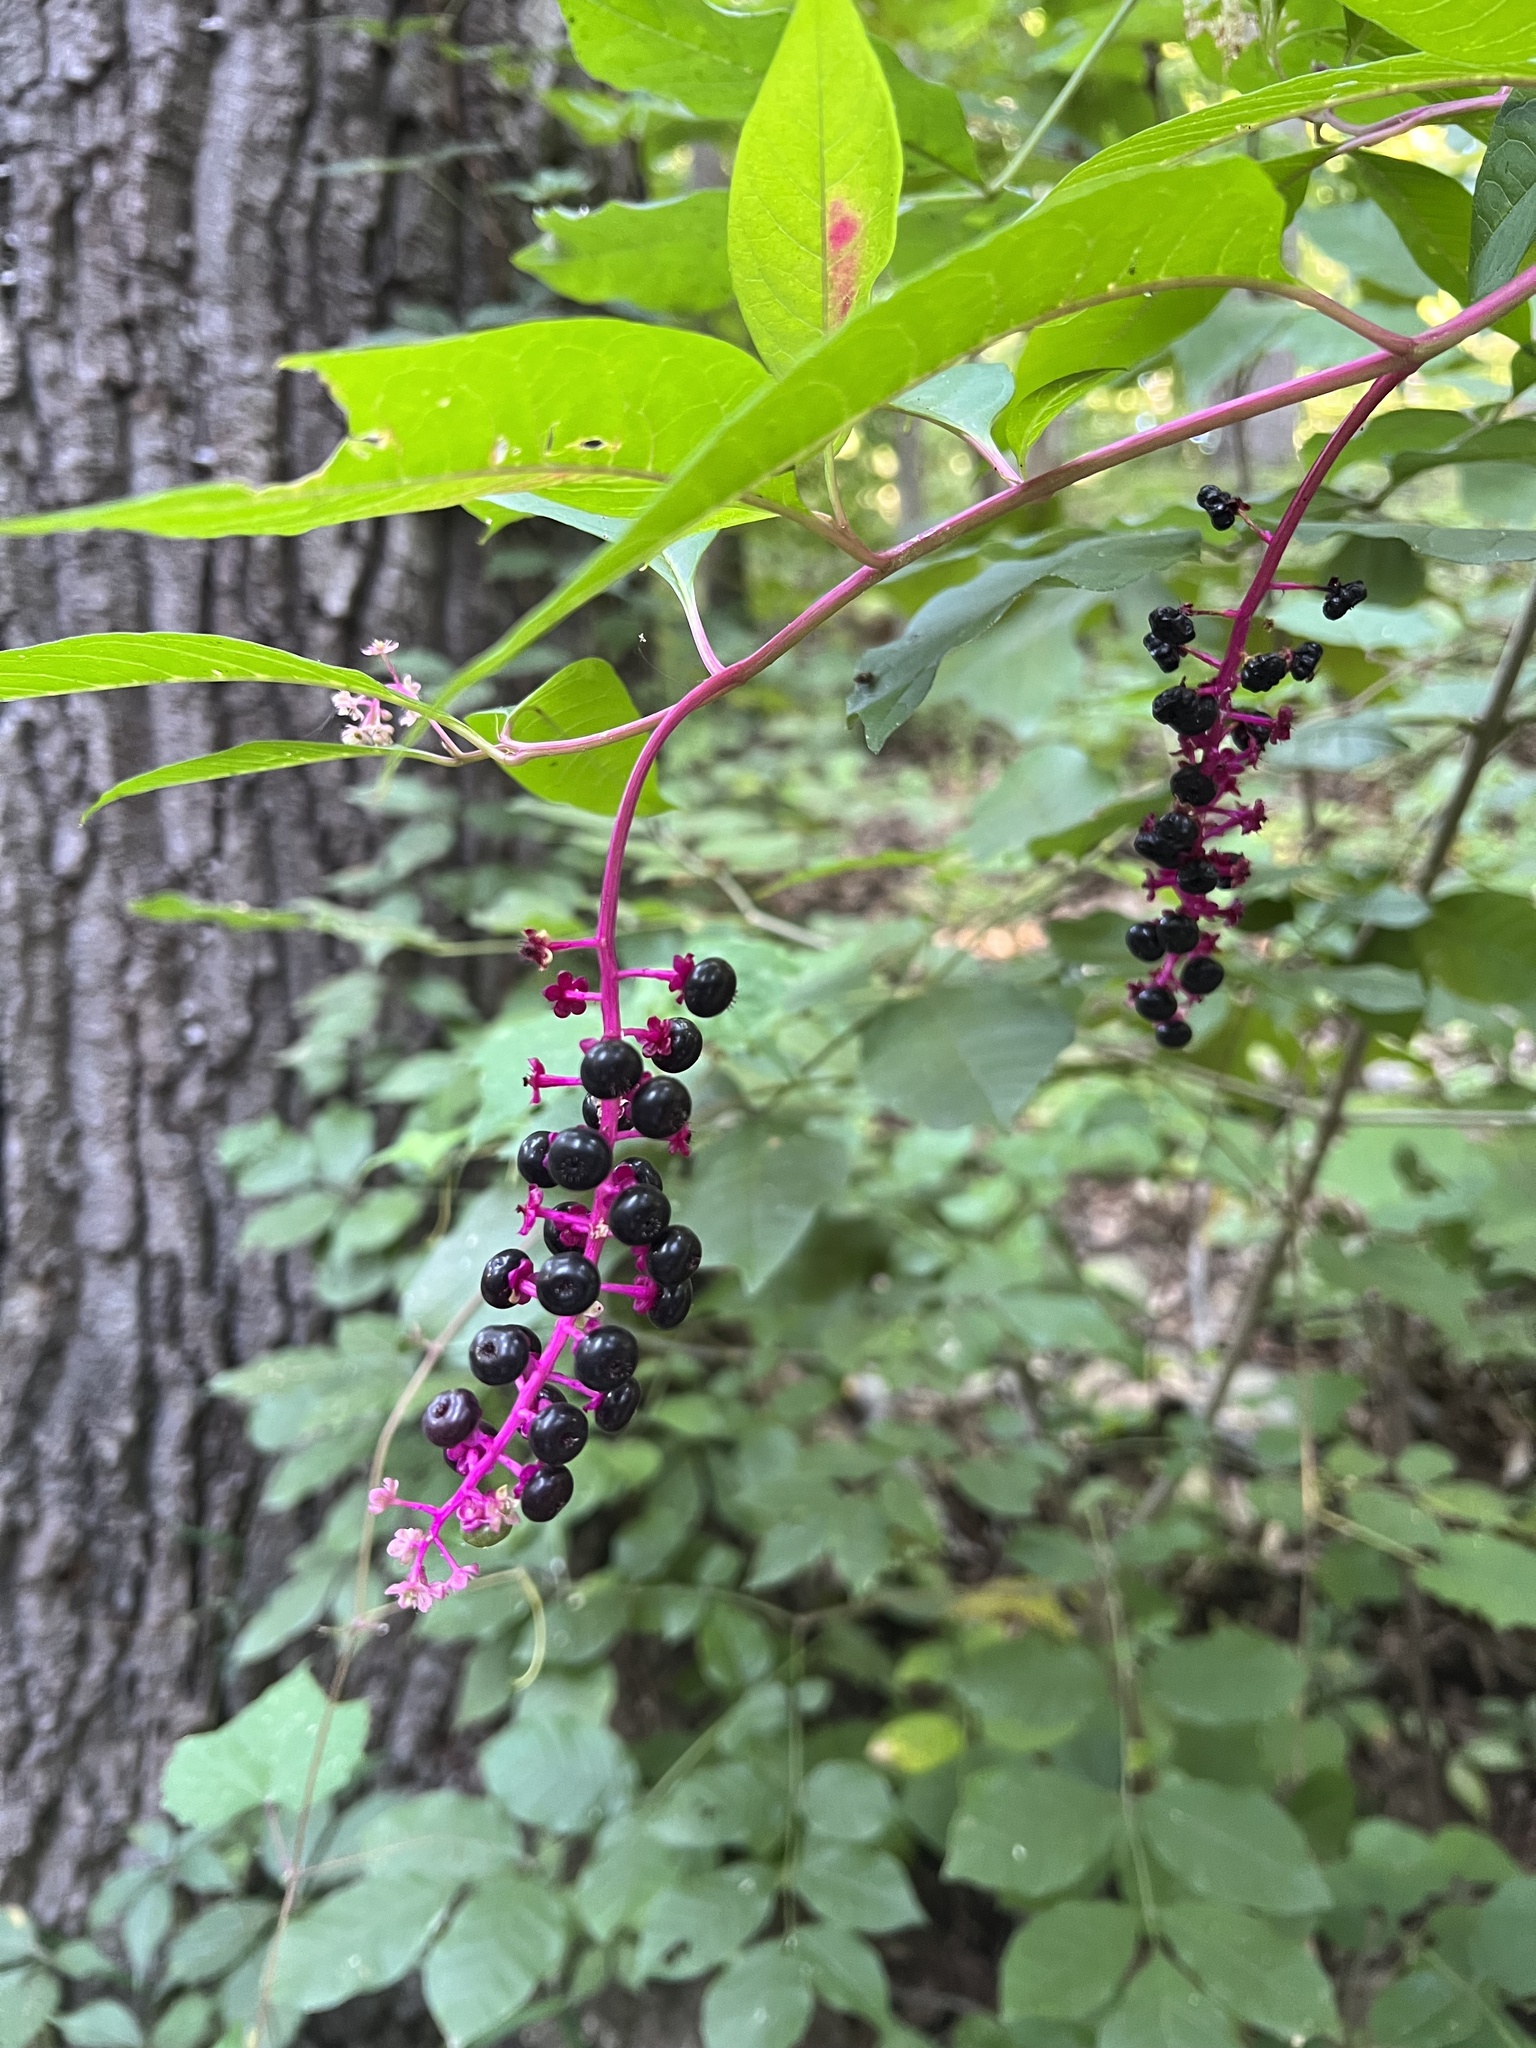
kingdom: Plantae
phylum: Tracheophyta
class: Magnoliopsida
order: Caryophyllales
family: Phytolaccaceae
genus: Phytolacca
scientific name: Phytolacca americana
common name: American pokeweed
